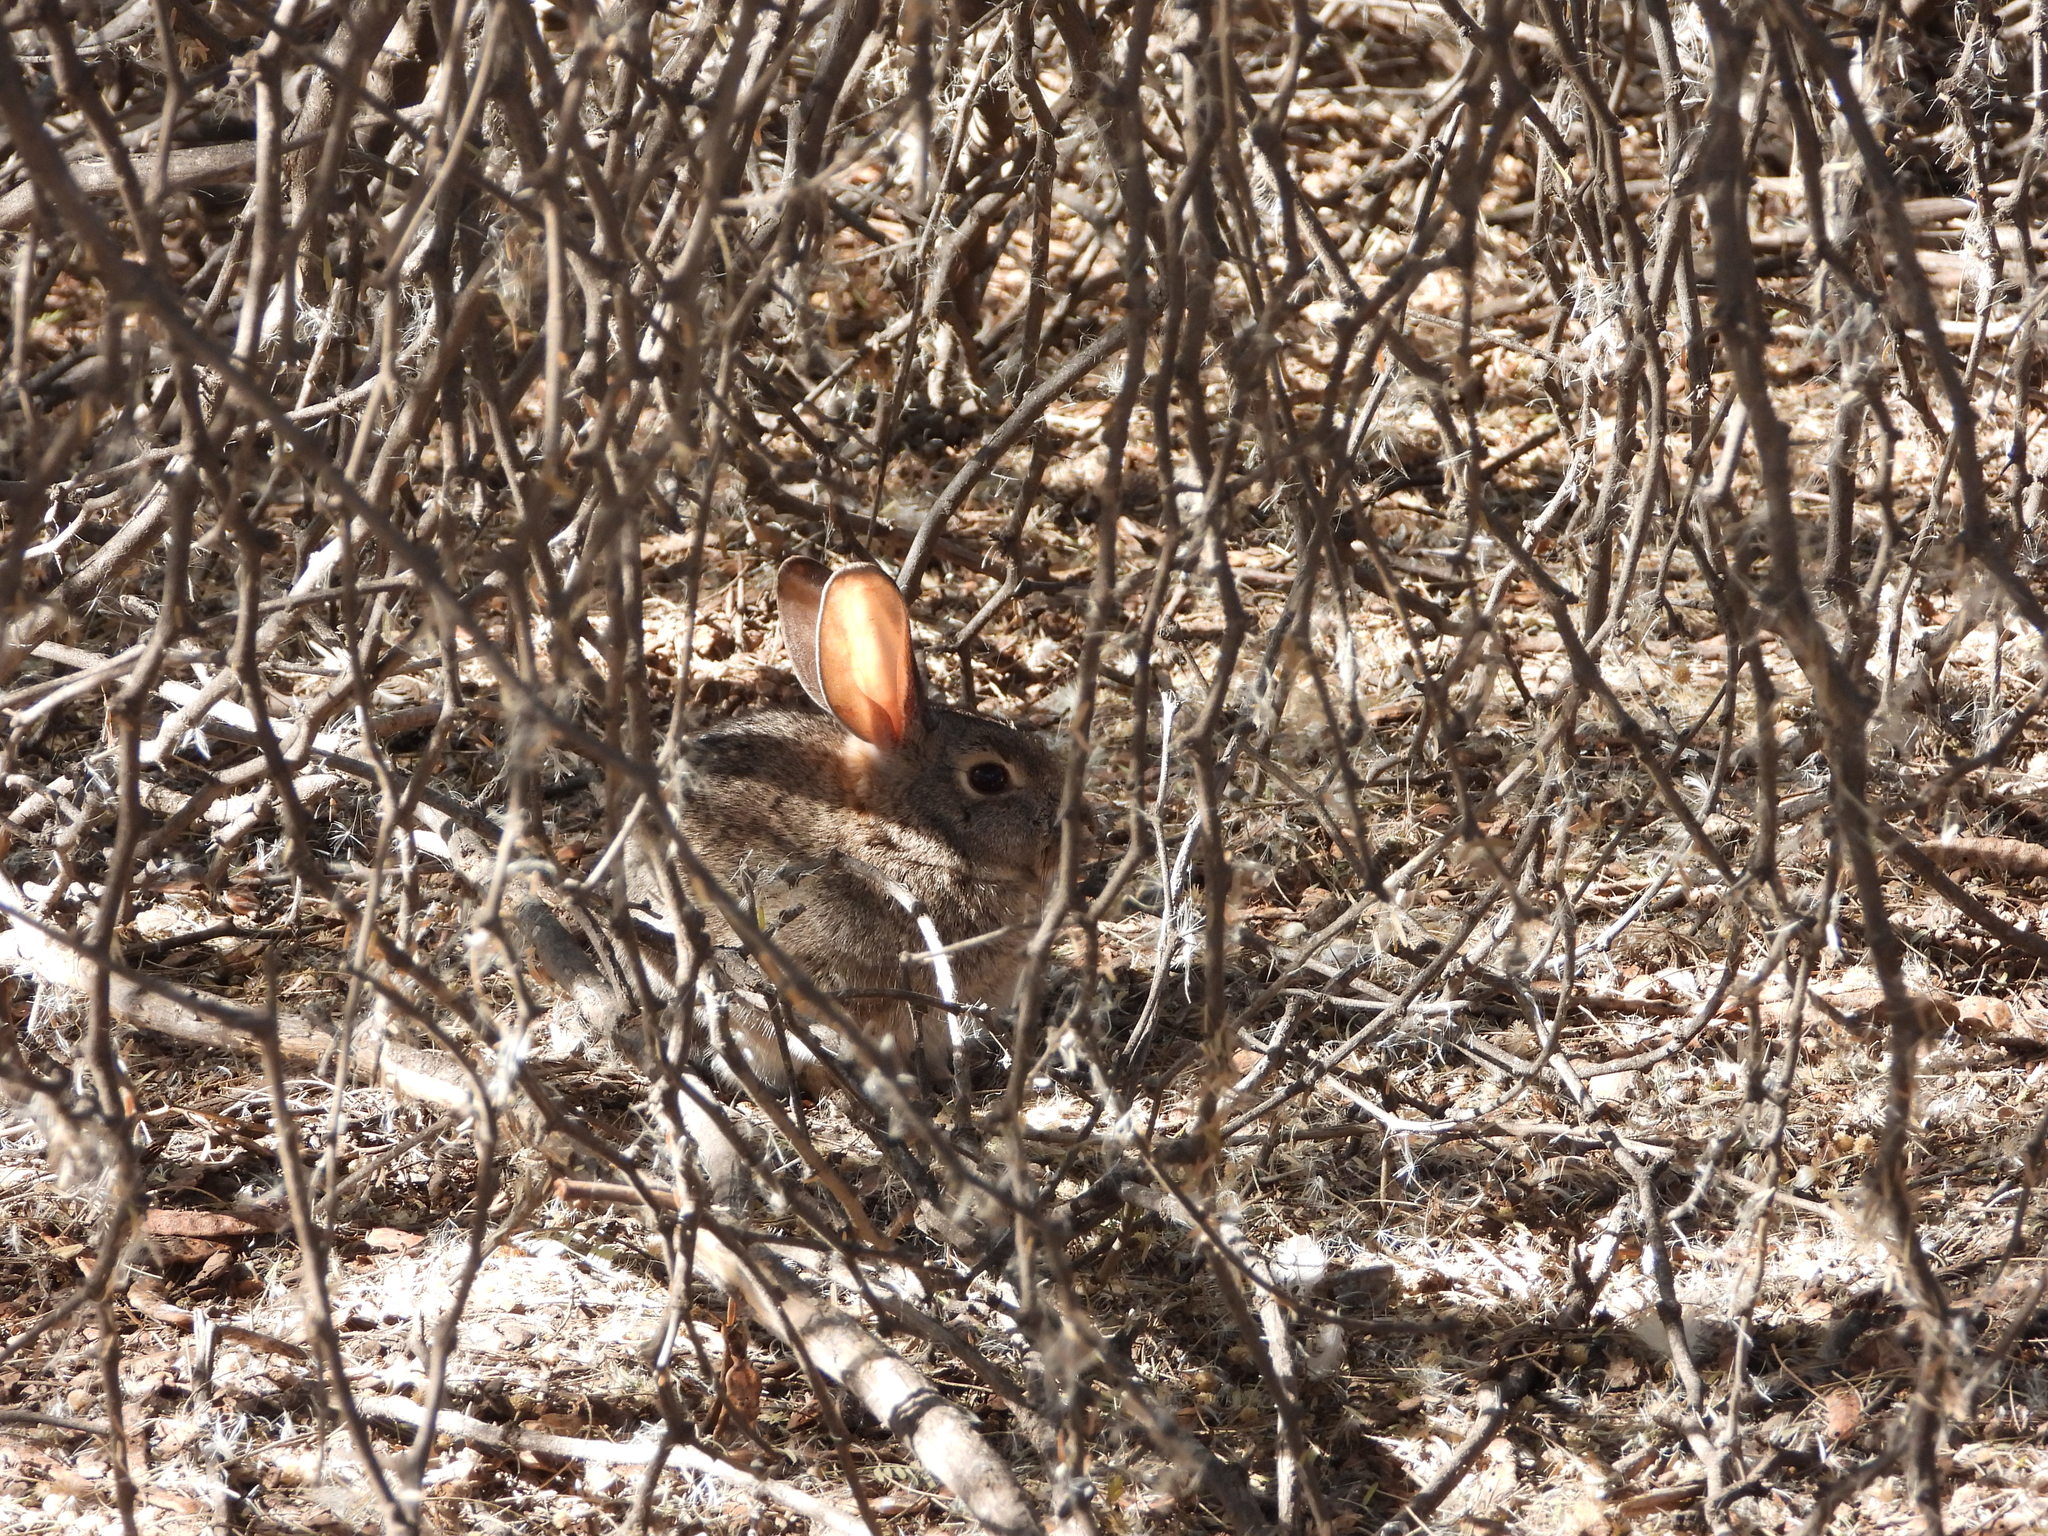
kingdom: Animalia
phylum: Chordata
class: Mammalia
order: Lagomorpha
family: Leporidae
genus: Sylvilagus
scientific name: Sylvilagus audubonii
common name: Desert cottontail
